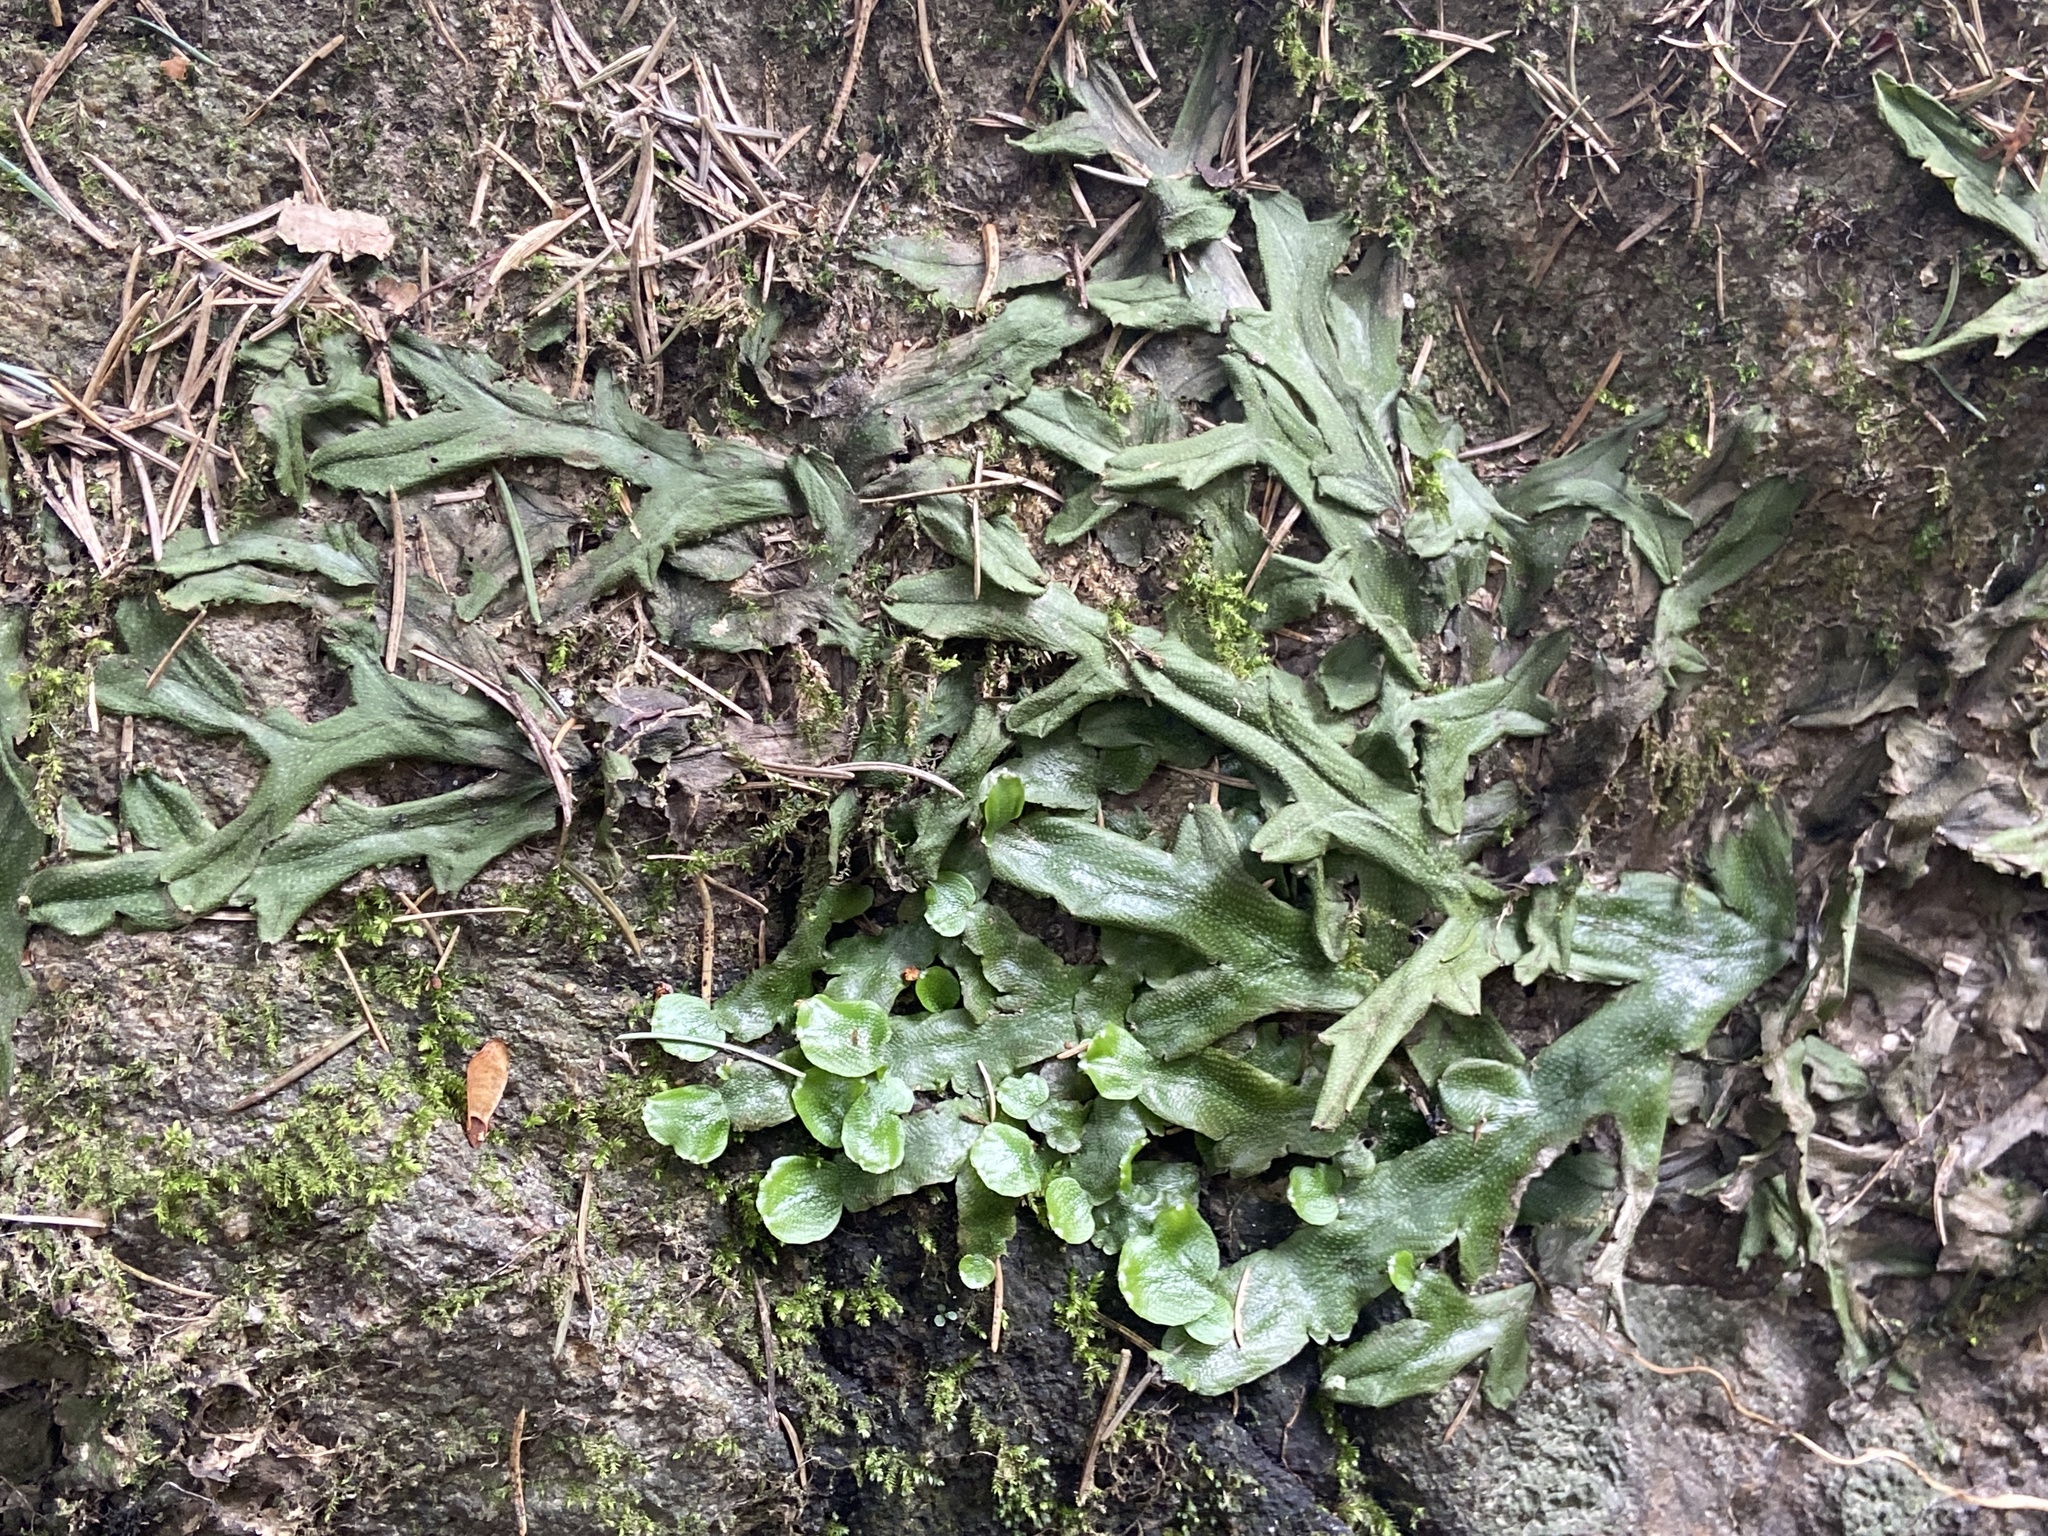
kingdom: Plantae
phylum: Marchantiophyta
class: Marchantiopsida
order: Marchantiales
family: Conocephalaceae
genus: Conocephalum
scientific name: Conocephalum conicum
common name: Great scented liverwort
